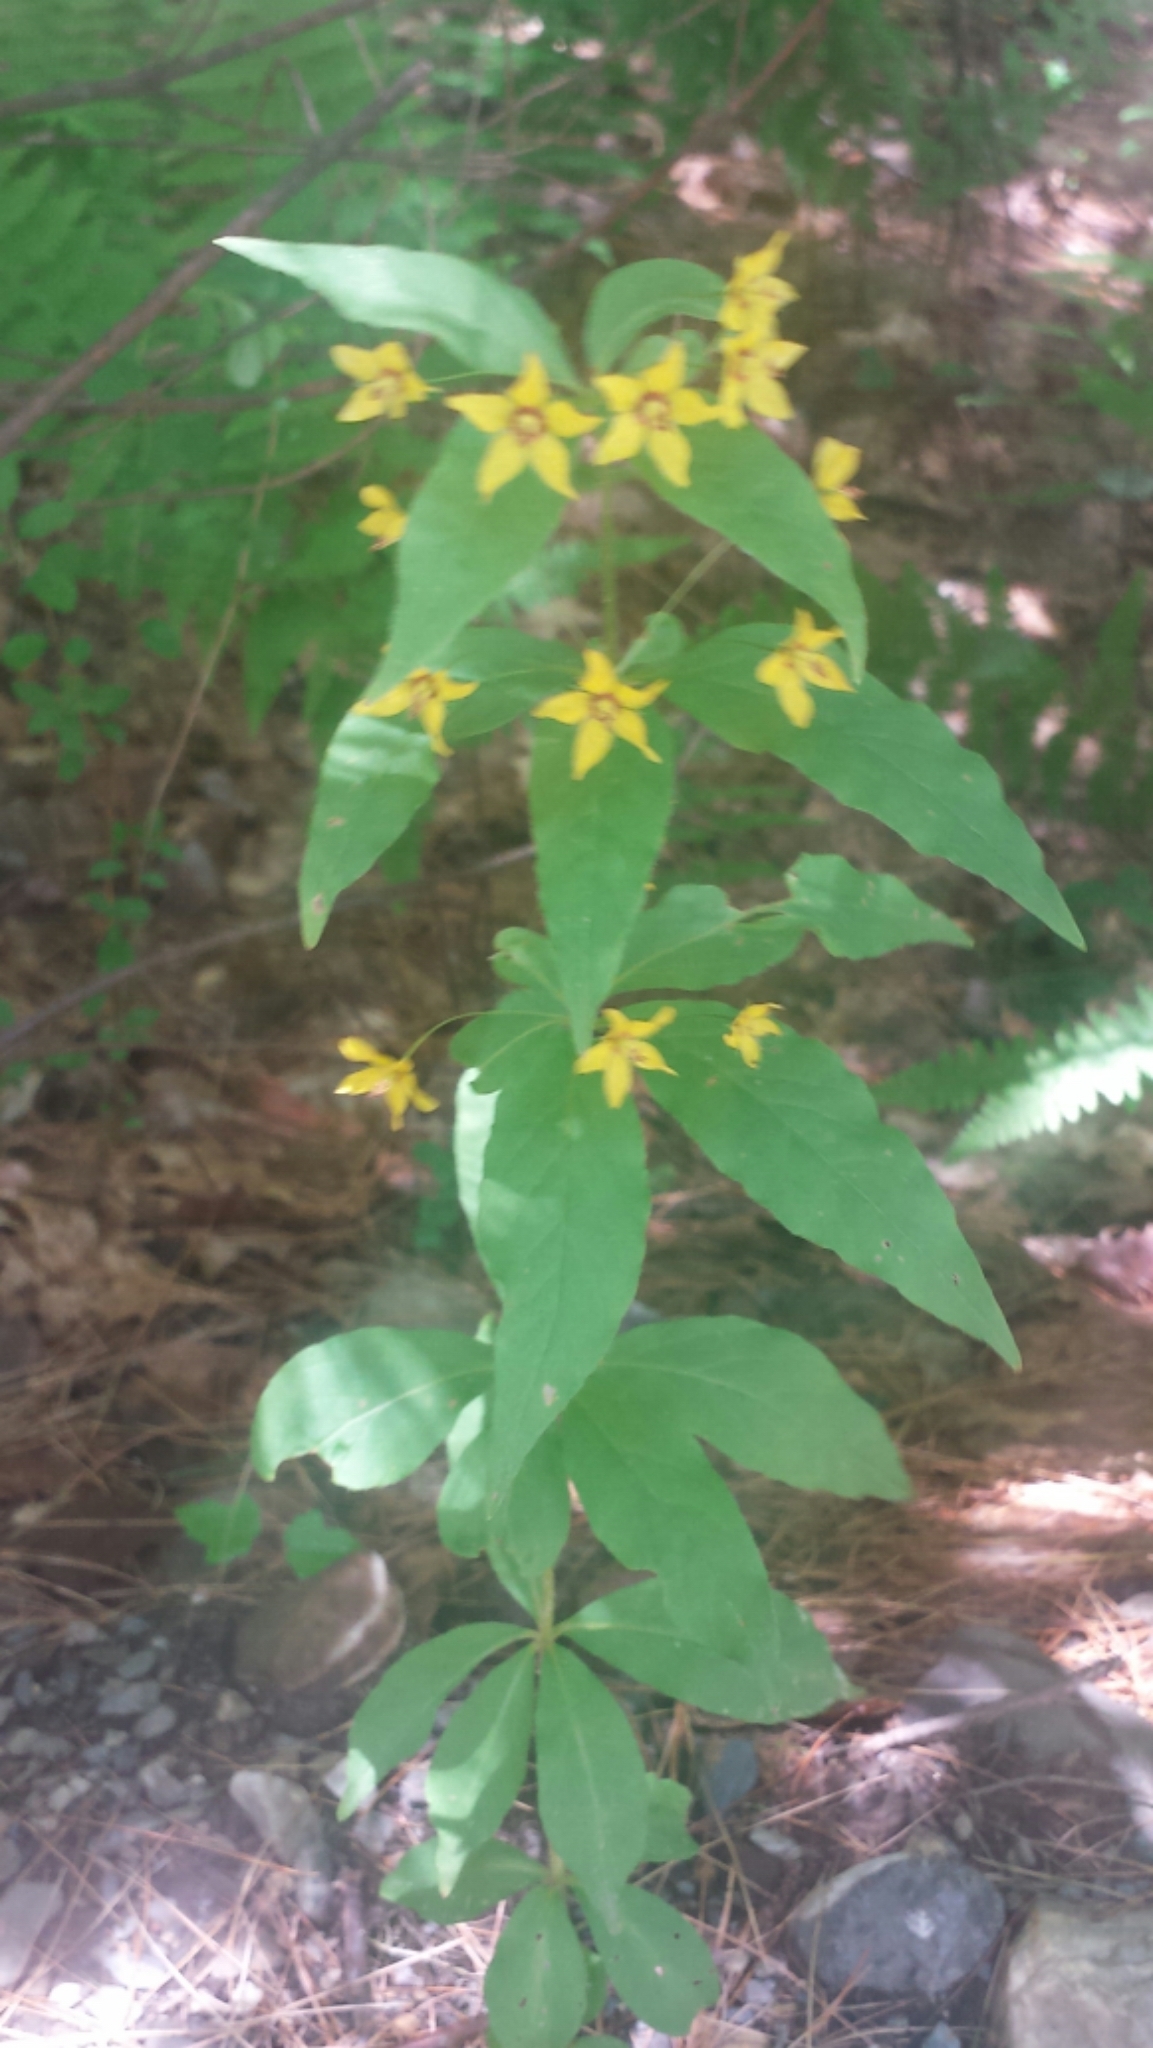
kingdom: Plantae
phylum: Tracheophyta
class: Magnoliopsida
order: Ericales
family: Primulaceae
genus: Lysimachia
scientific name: Lysimachia quadrifolia
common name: Whorled loosestrife
